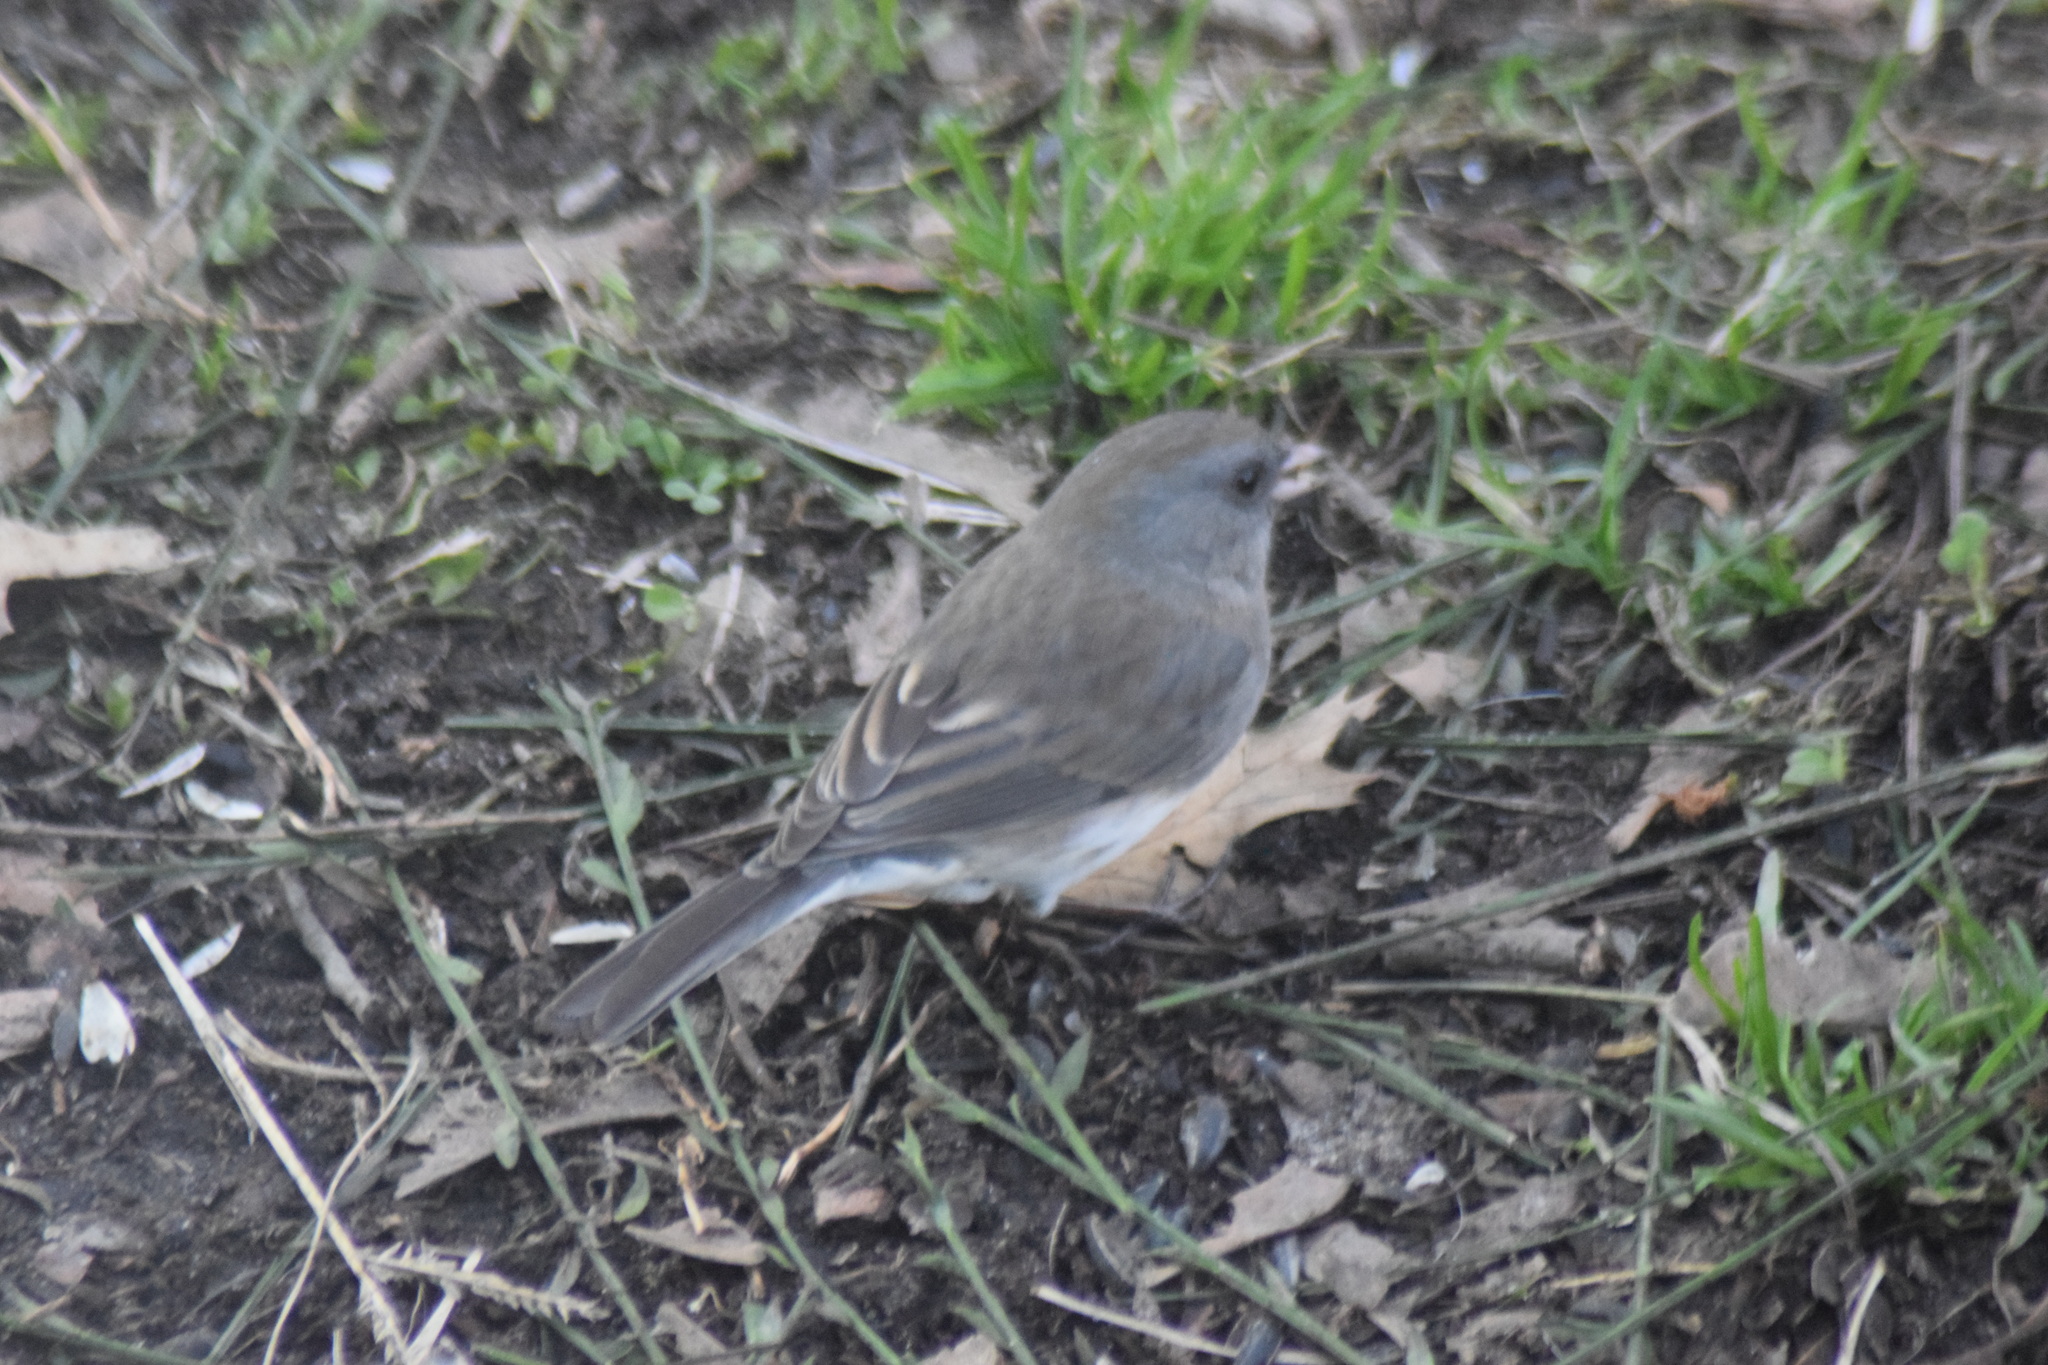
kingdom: Animalia
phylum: Chordata
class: Aves
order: Passeriformes
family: Passerellidae
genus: Junco
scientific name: Junco hyemalis
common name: Dark-eyed junco
